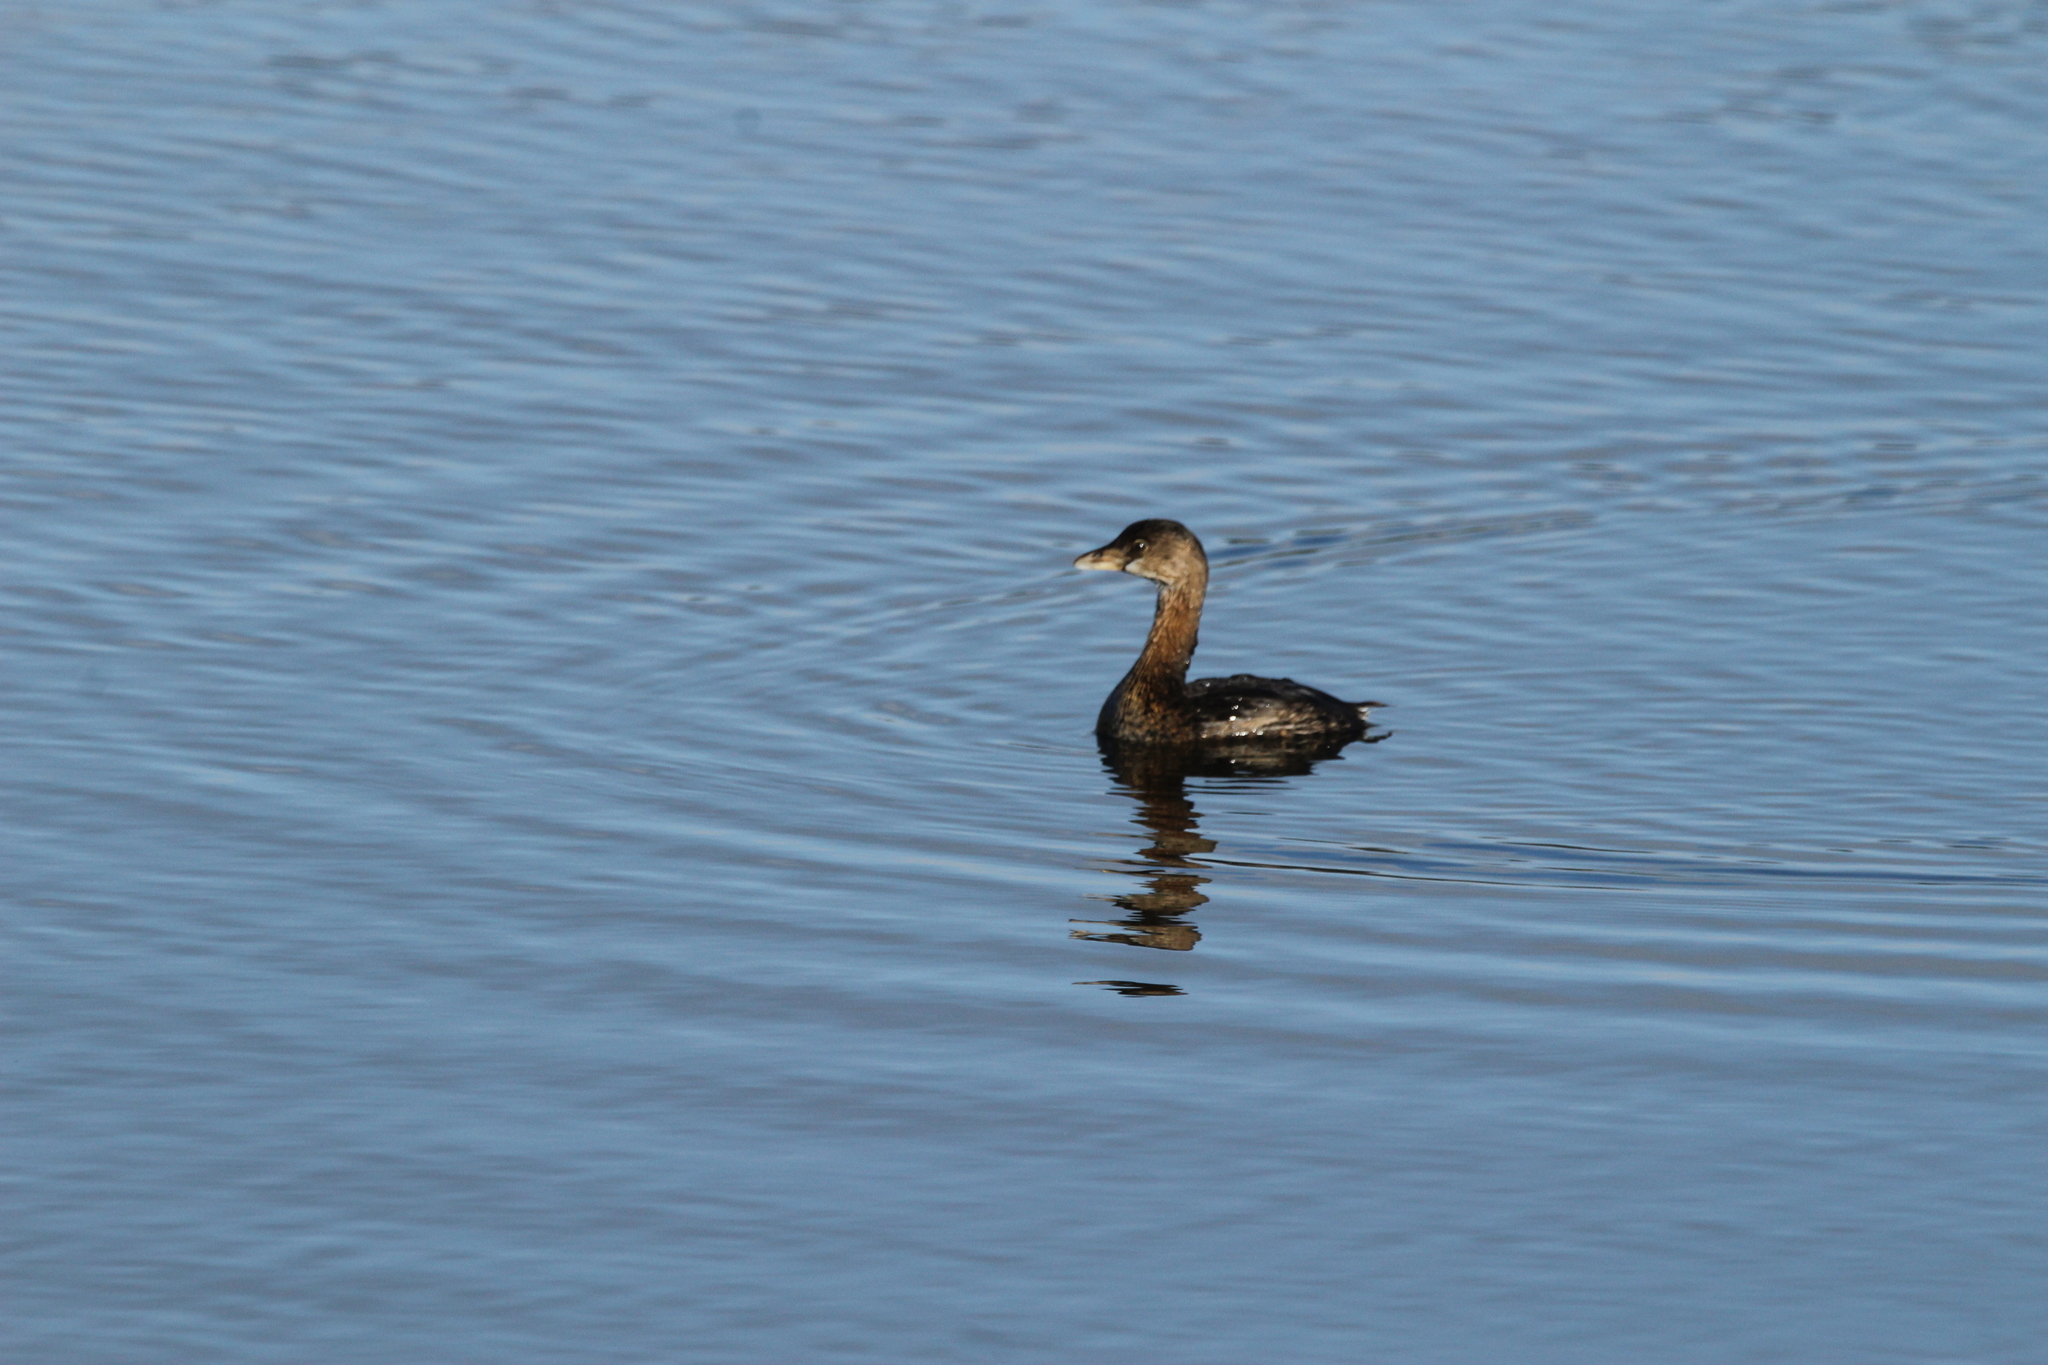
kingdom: Animalia
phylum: Chordata
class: Aves
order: Podicipediformes
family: Podicipedidae
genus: Podilymbus
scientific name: Podilymbus podiceps
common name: Pied-billed grebe
